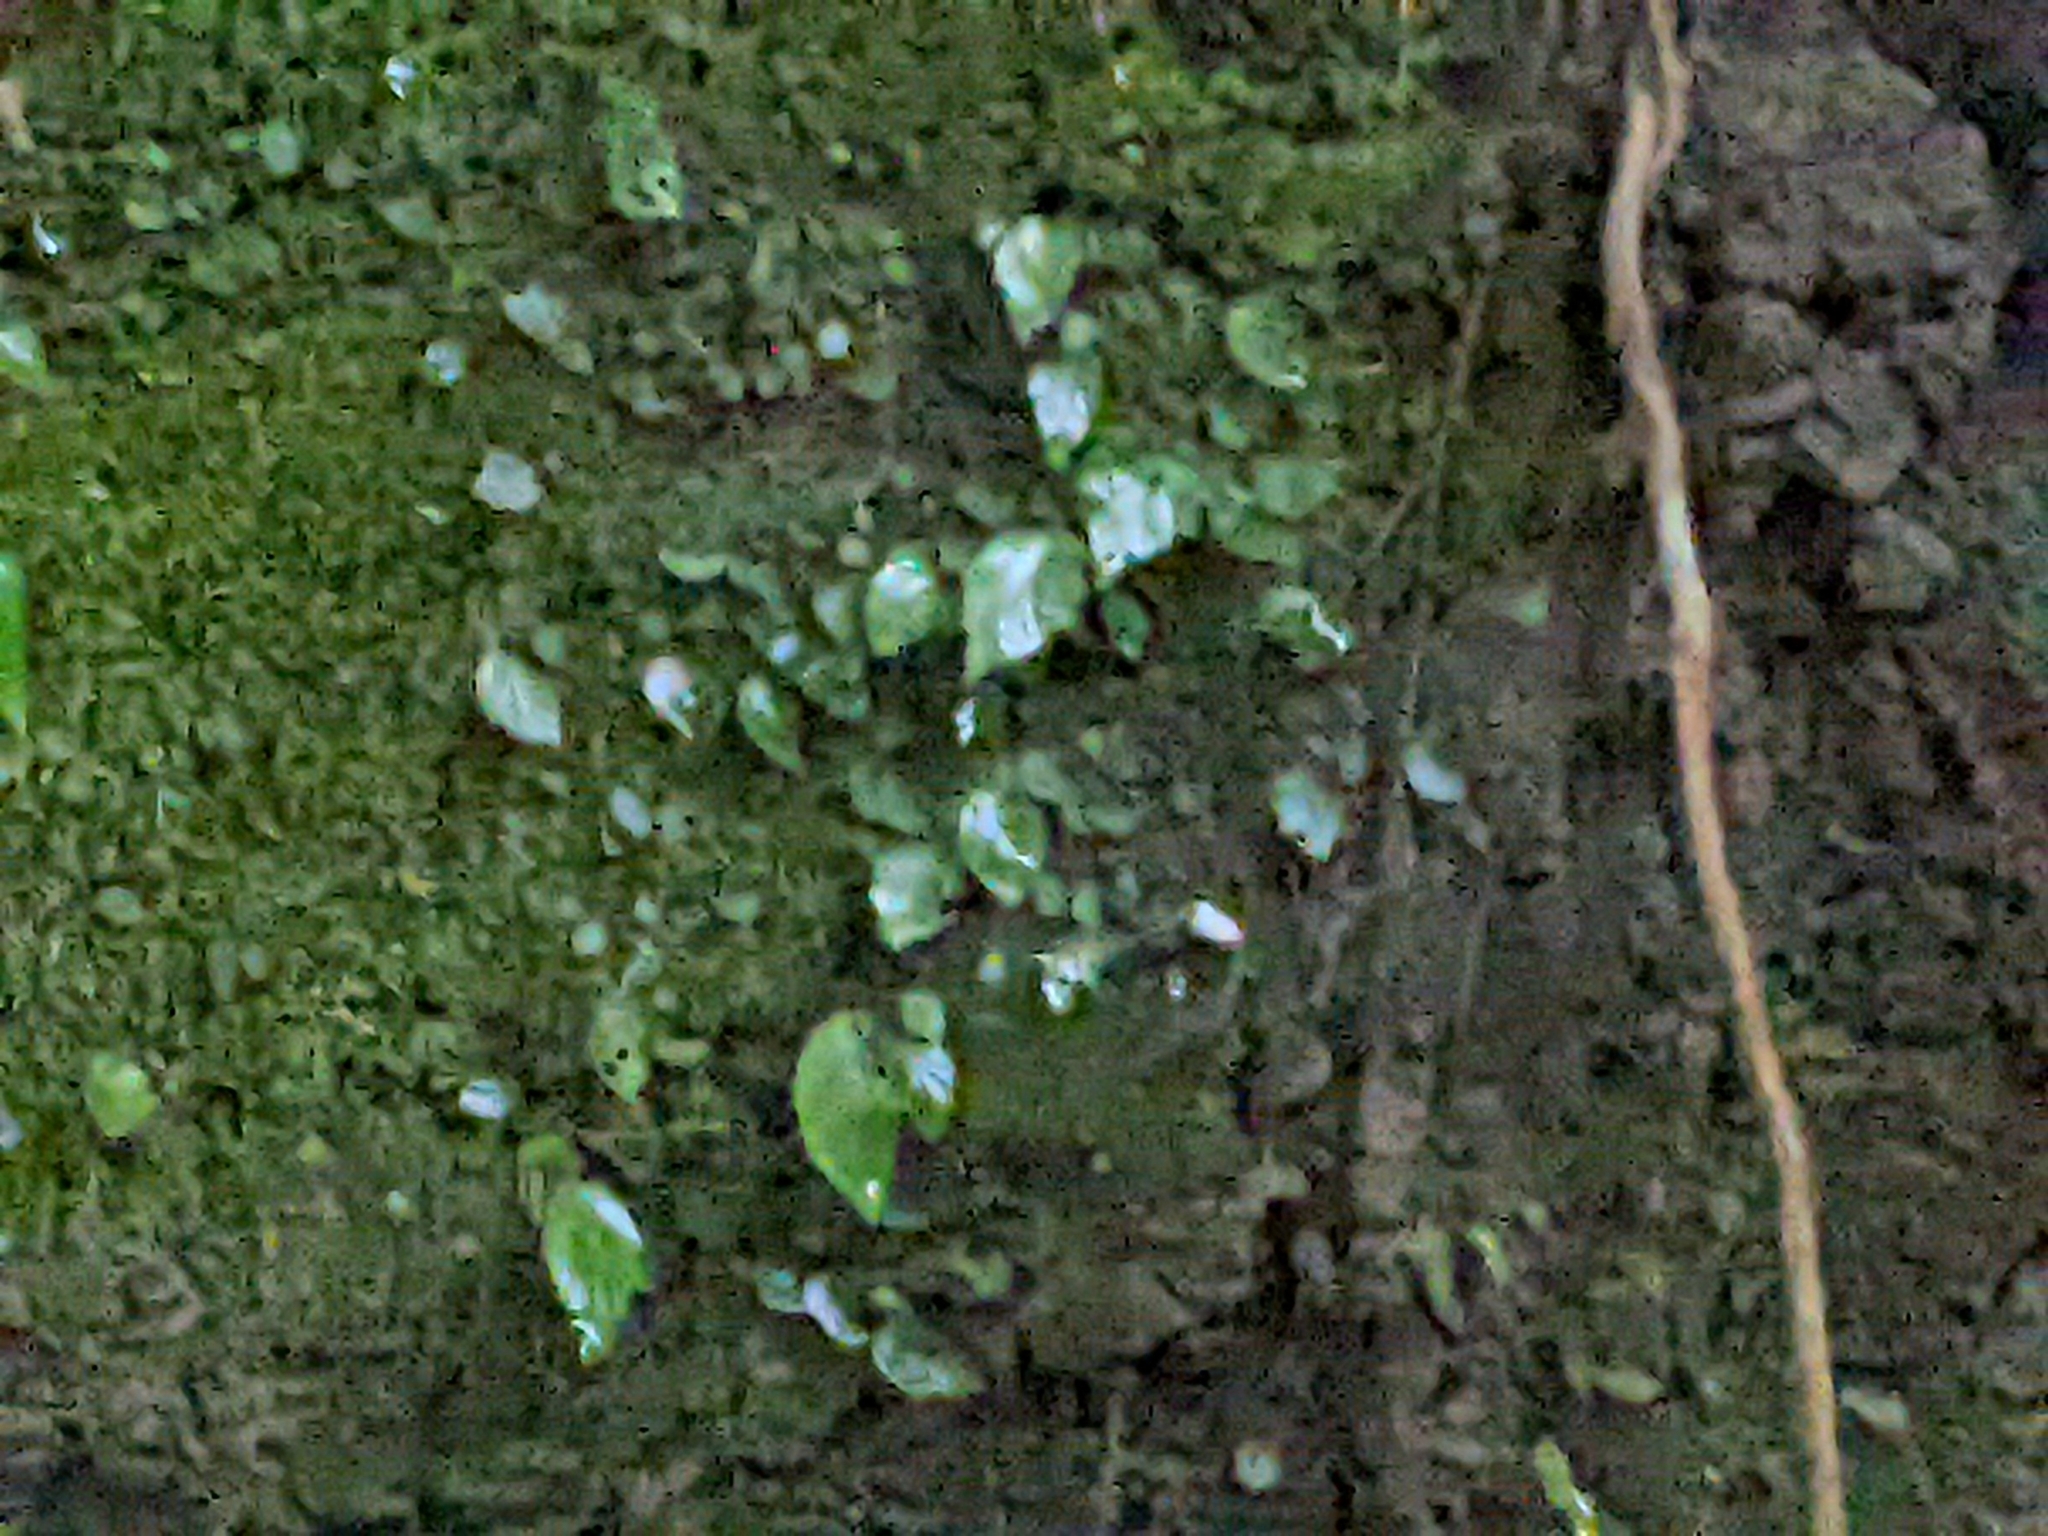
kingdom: Plantae
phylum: Tracheophyta
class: Magnoliopsida
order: Cucurbitales
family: Begoniaceae
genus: Begonia
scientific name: Begonia ravenii
